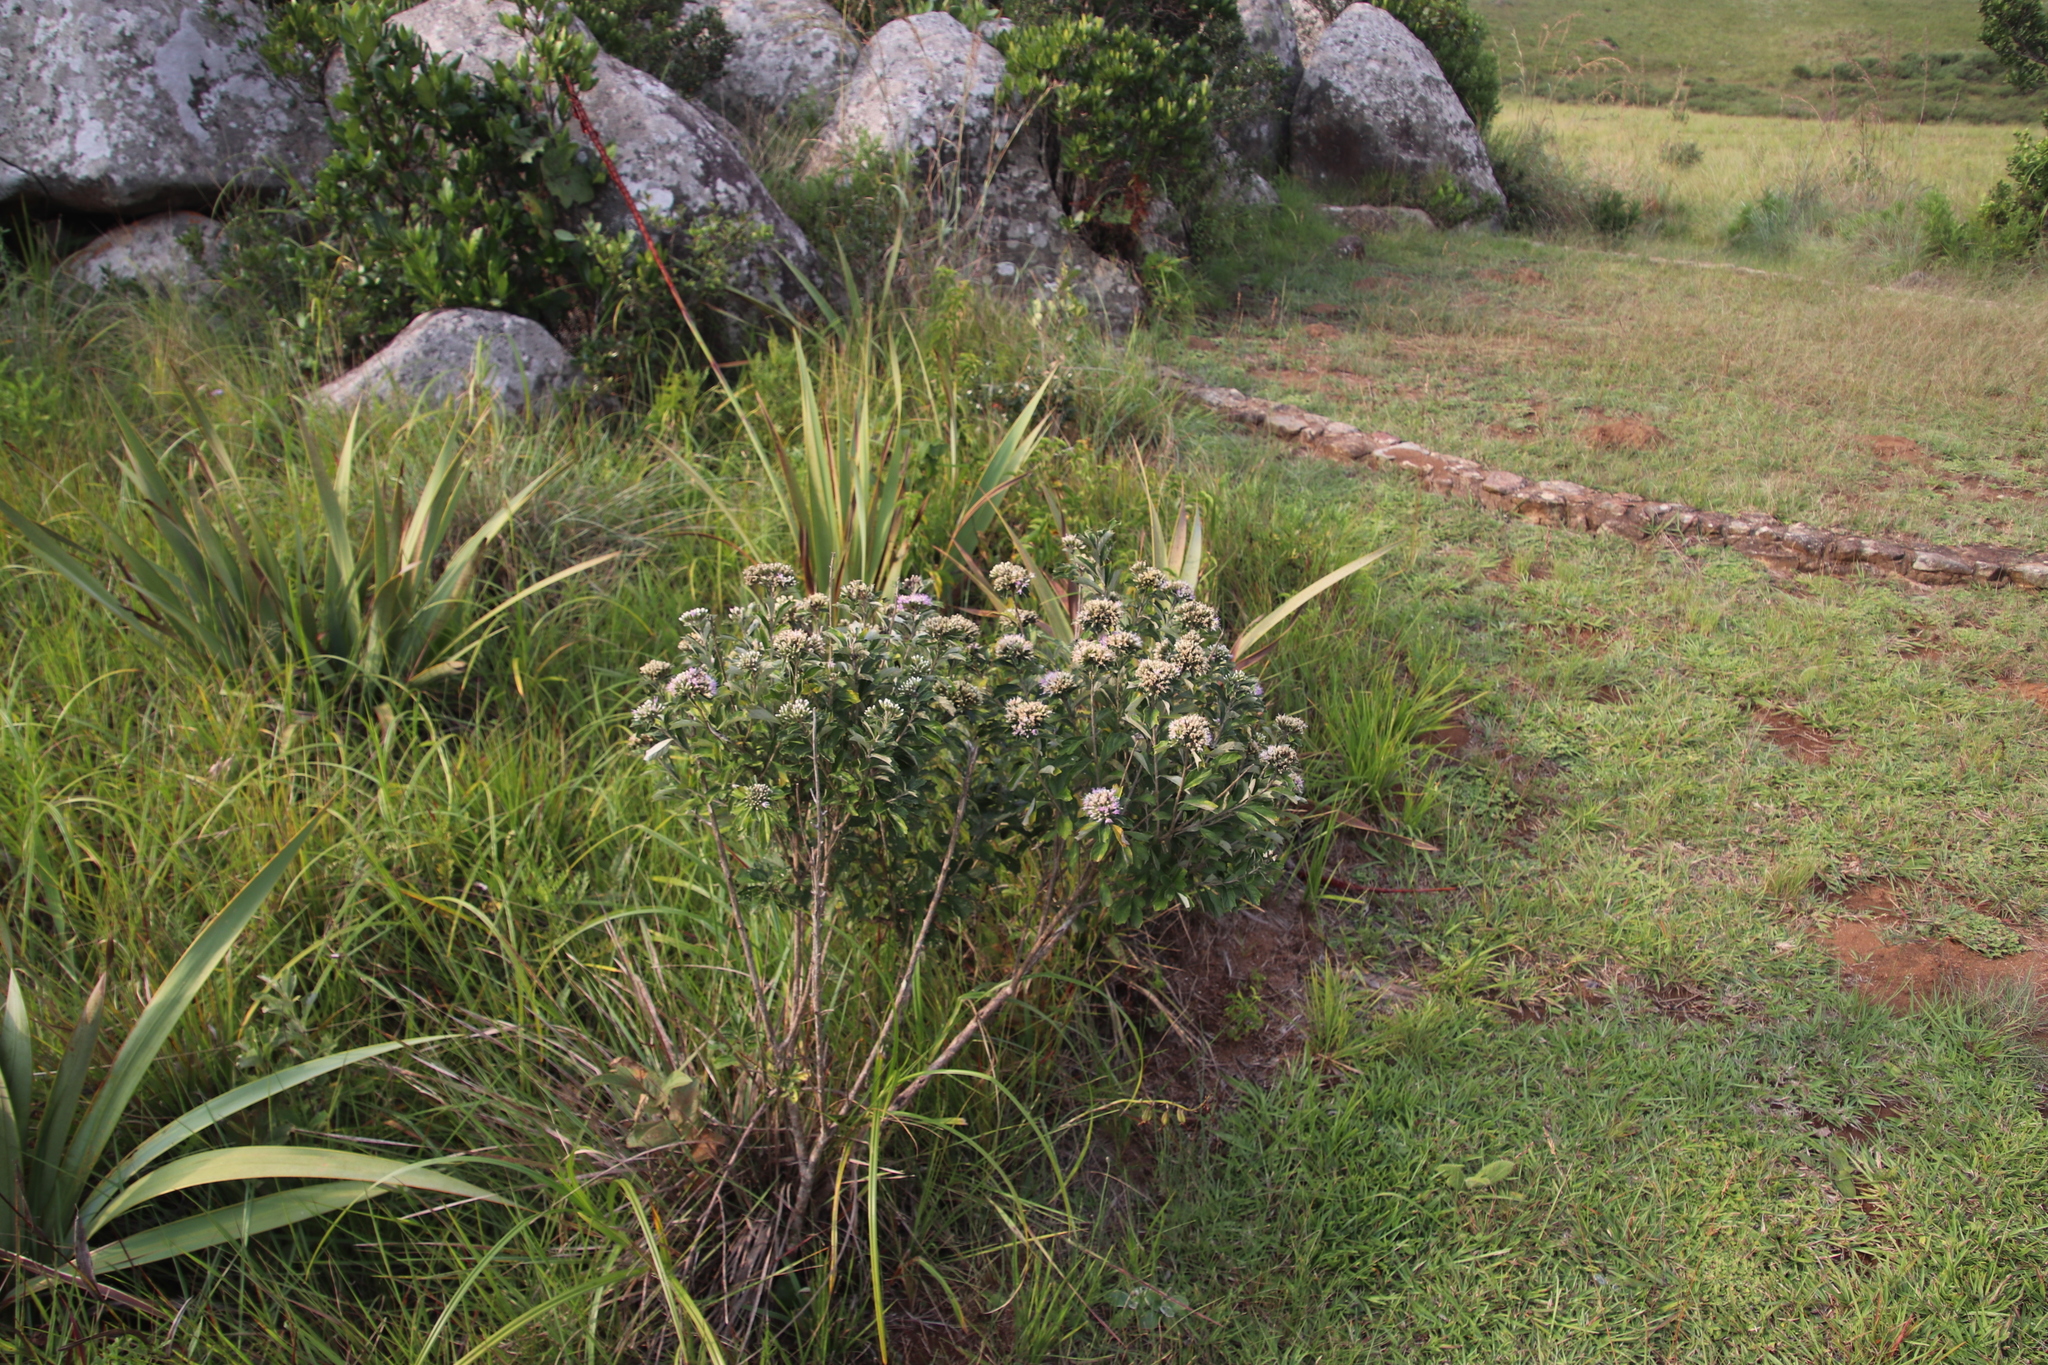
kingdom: Plantae
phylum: Tracheophyta
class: Magnoliopsida
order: Asterales
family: Asteraceae
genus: Gymnanthemum
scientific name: Gymnanthemum corymbosum
